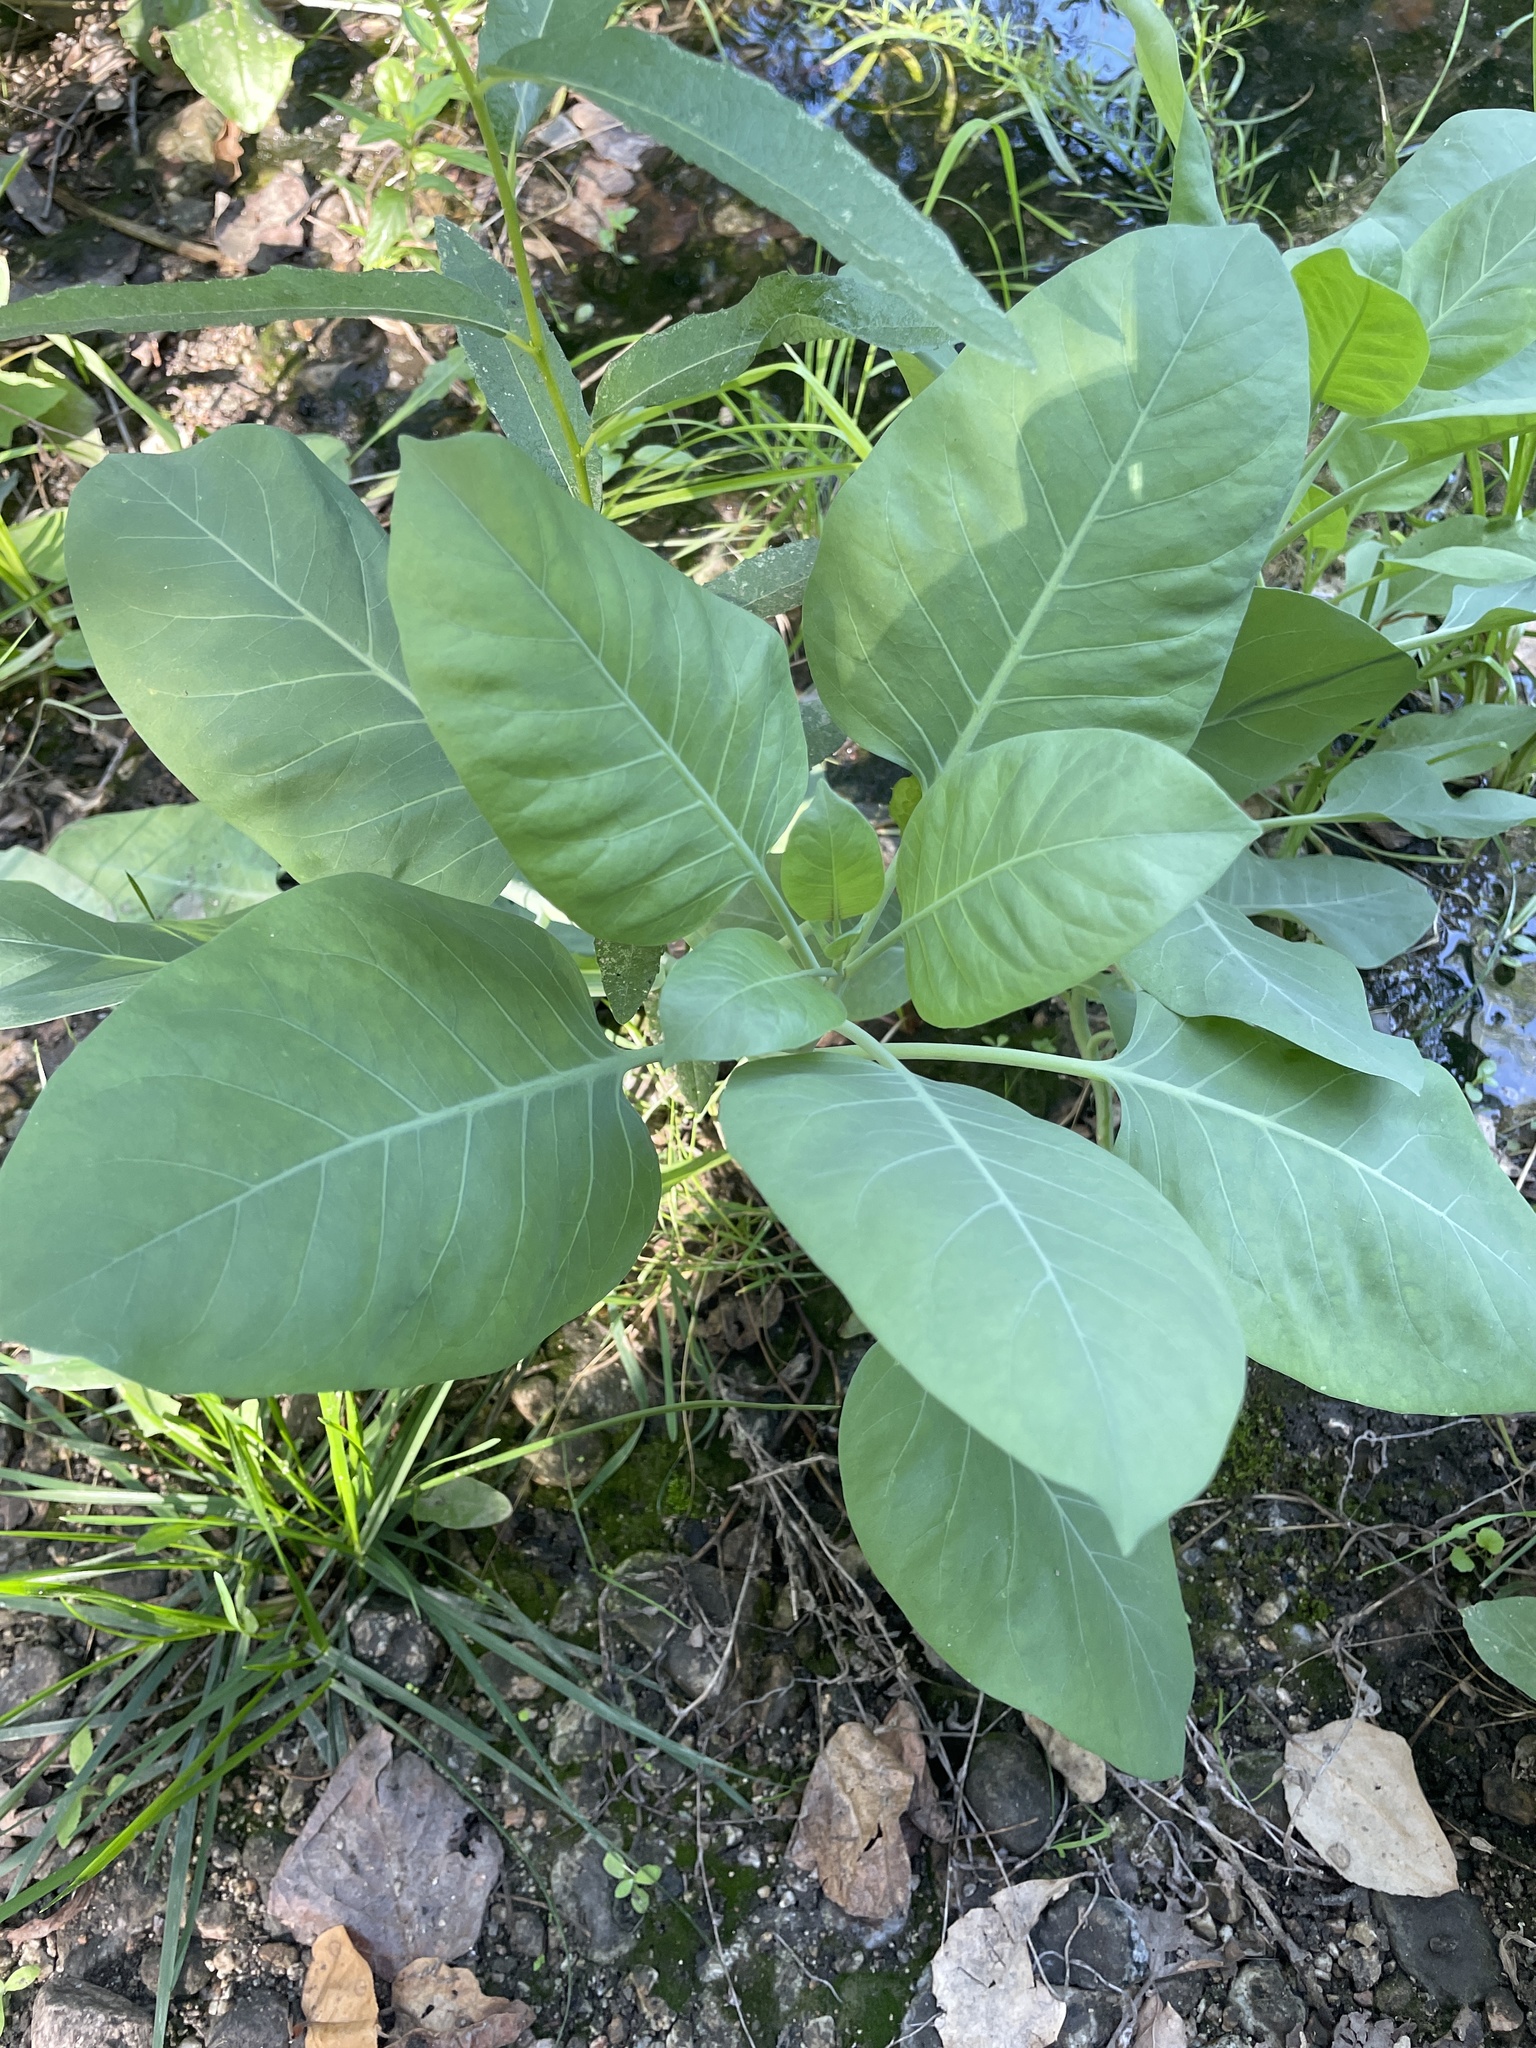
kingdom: Plantae
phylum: Tracheophyta
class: Magnoliopsida
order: Solanales
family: Solanaceae
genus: Nicotiana
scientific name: Nicotiana glauca
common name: Tree tobacco
